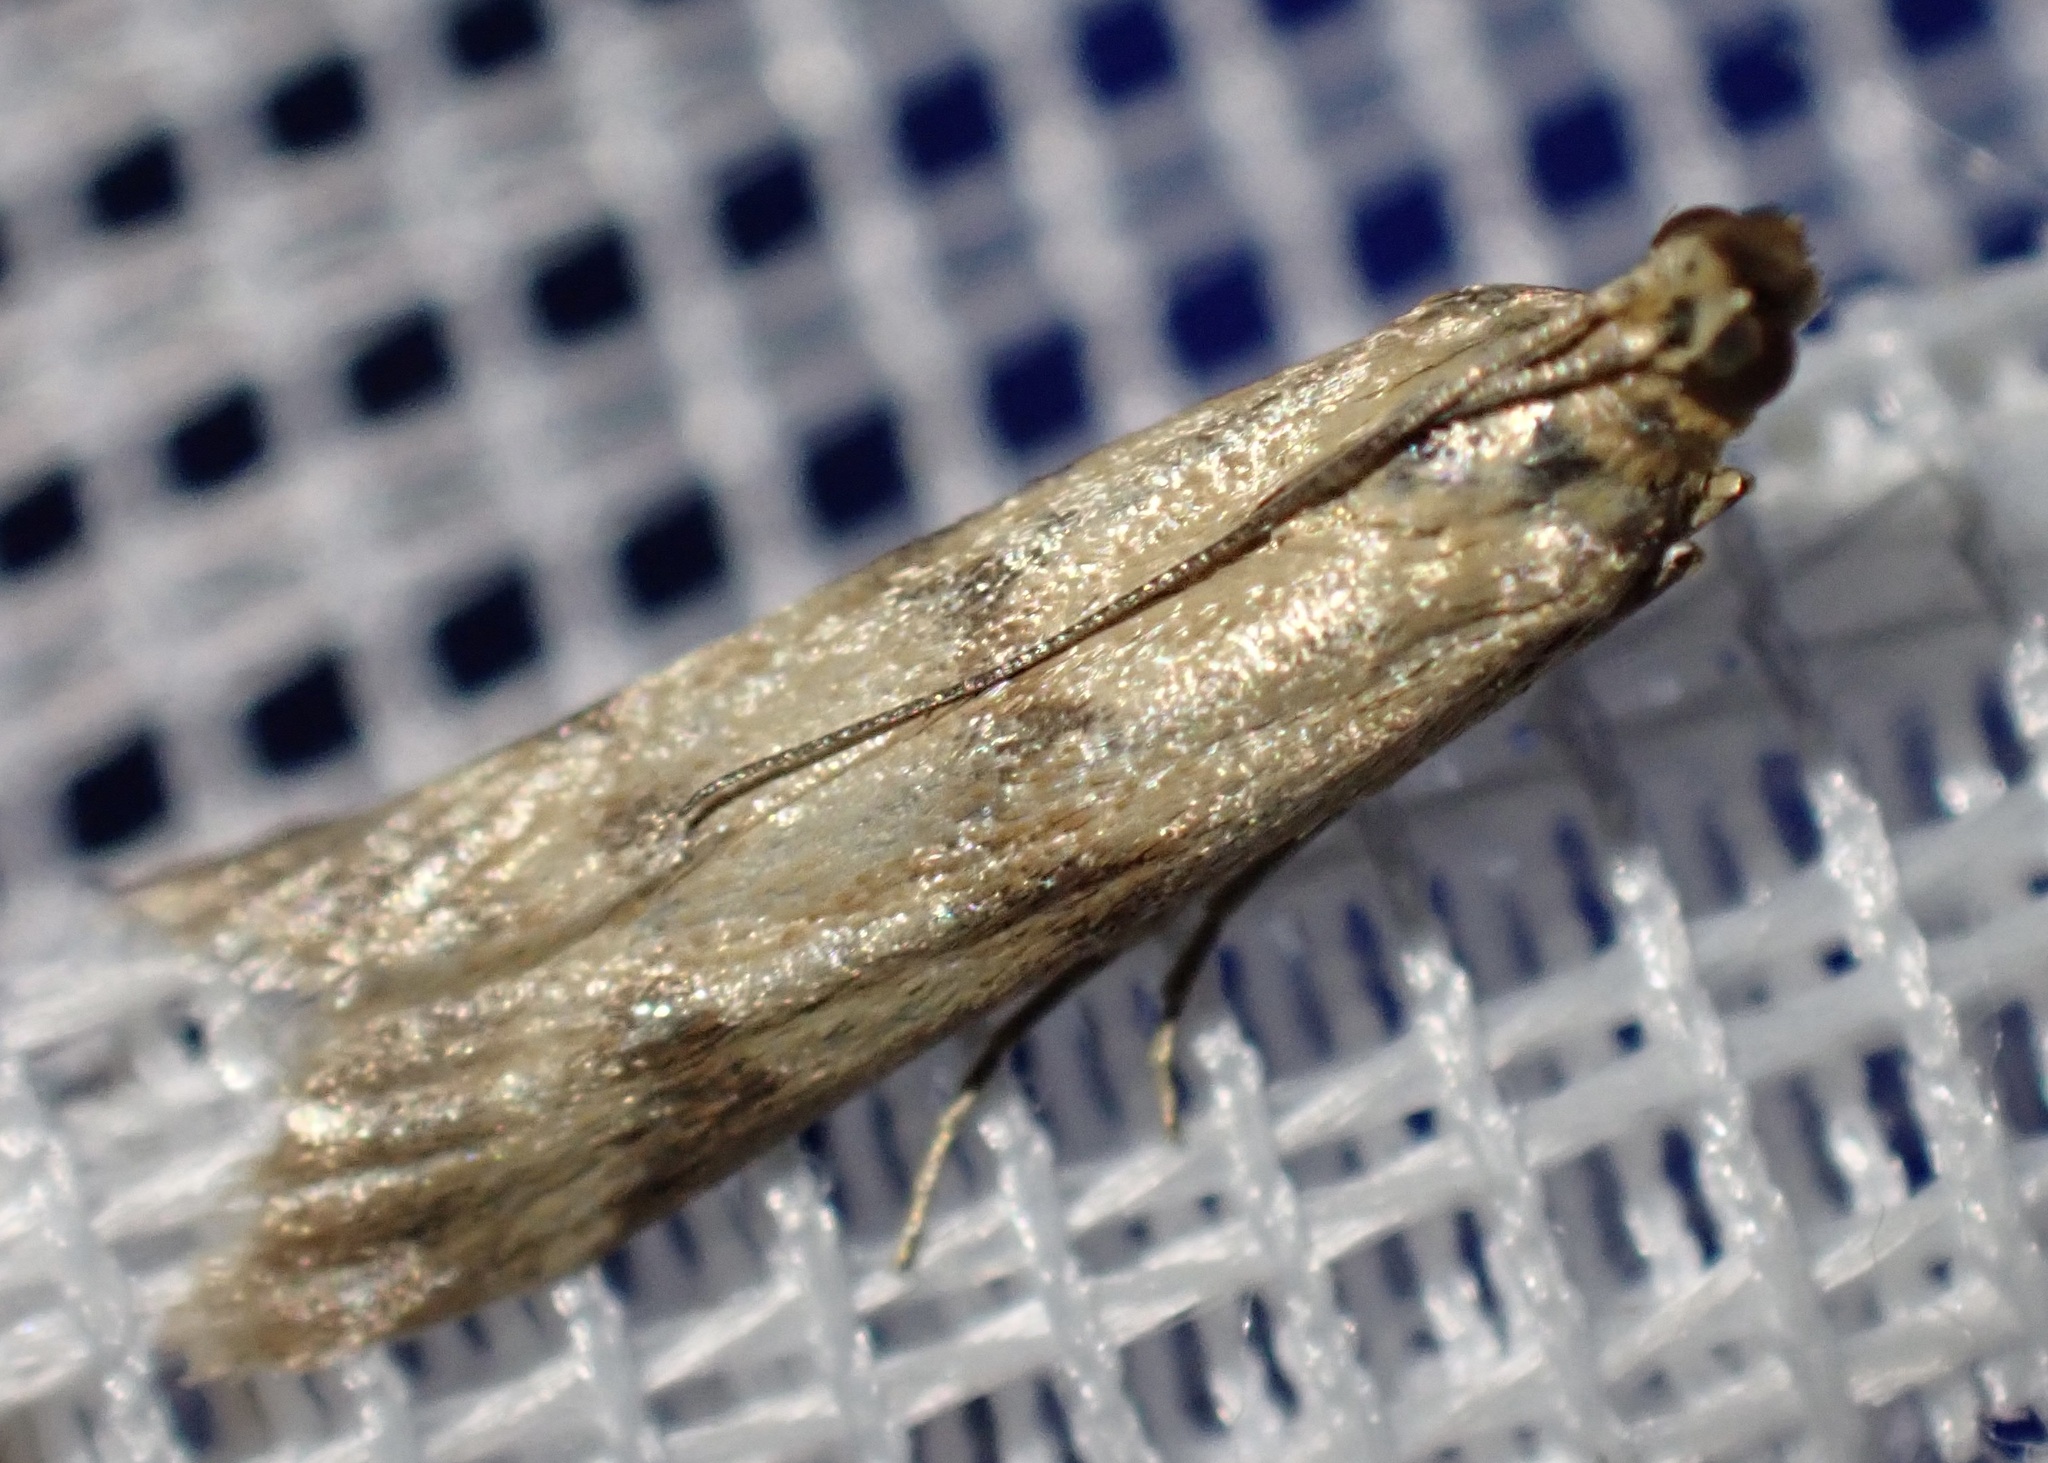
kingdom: Animalia
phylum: Arthropoda
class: Insecta
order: Lepidoptera
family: Pyralidae
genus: Homoeosoma
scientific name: Homoeosoma sinuella
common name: Twin-barred knot-horn
